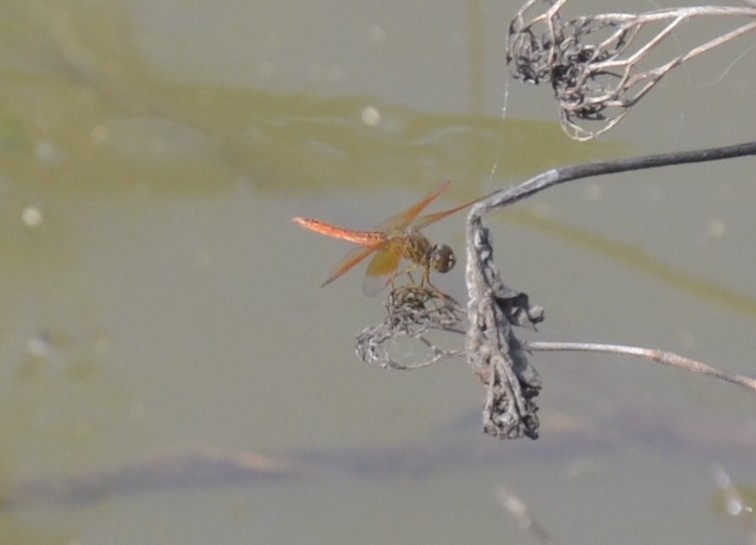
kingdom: Animalia
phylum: Arthropoda
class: Insecta
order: Odonata
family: Libellulidae
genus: Brachythemis
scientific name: Brachythemis contaminata
